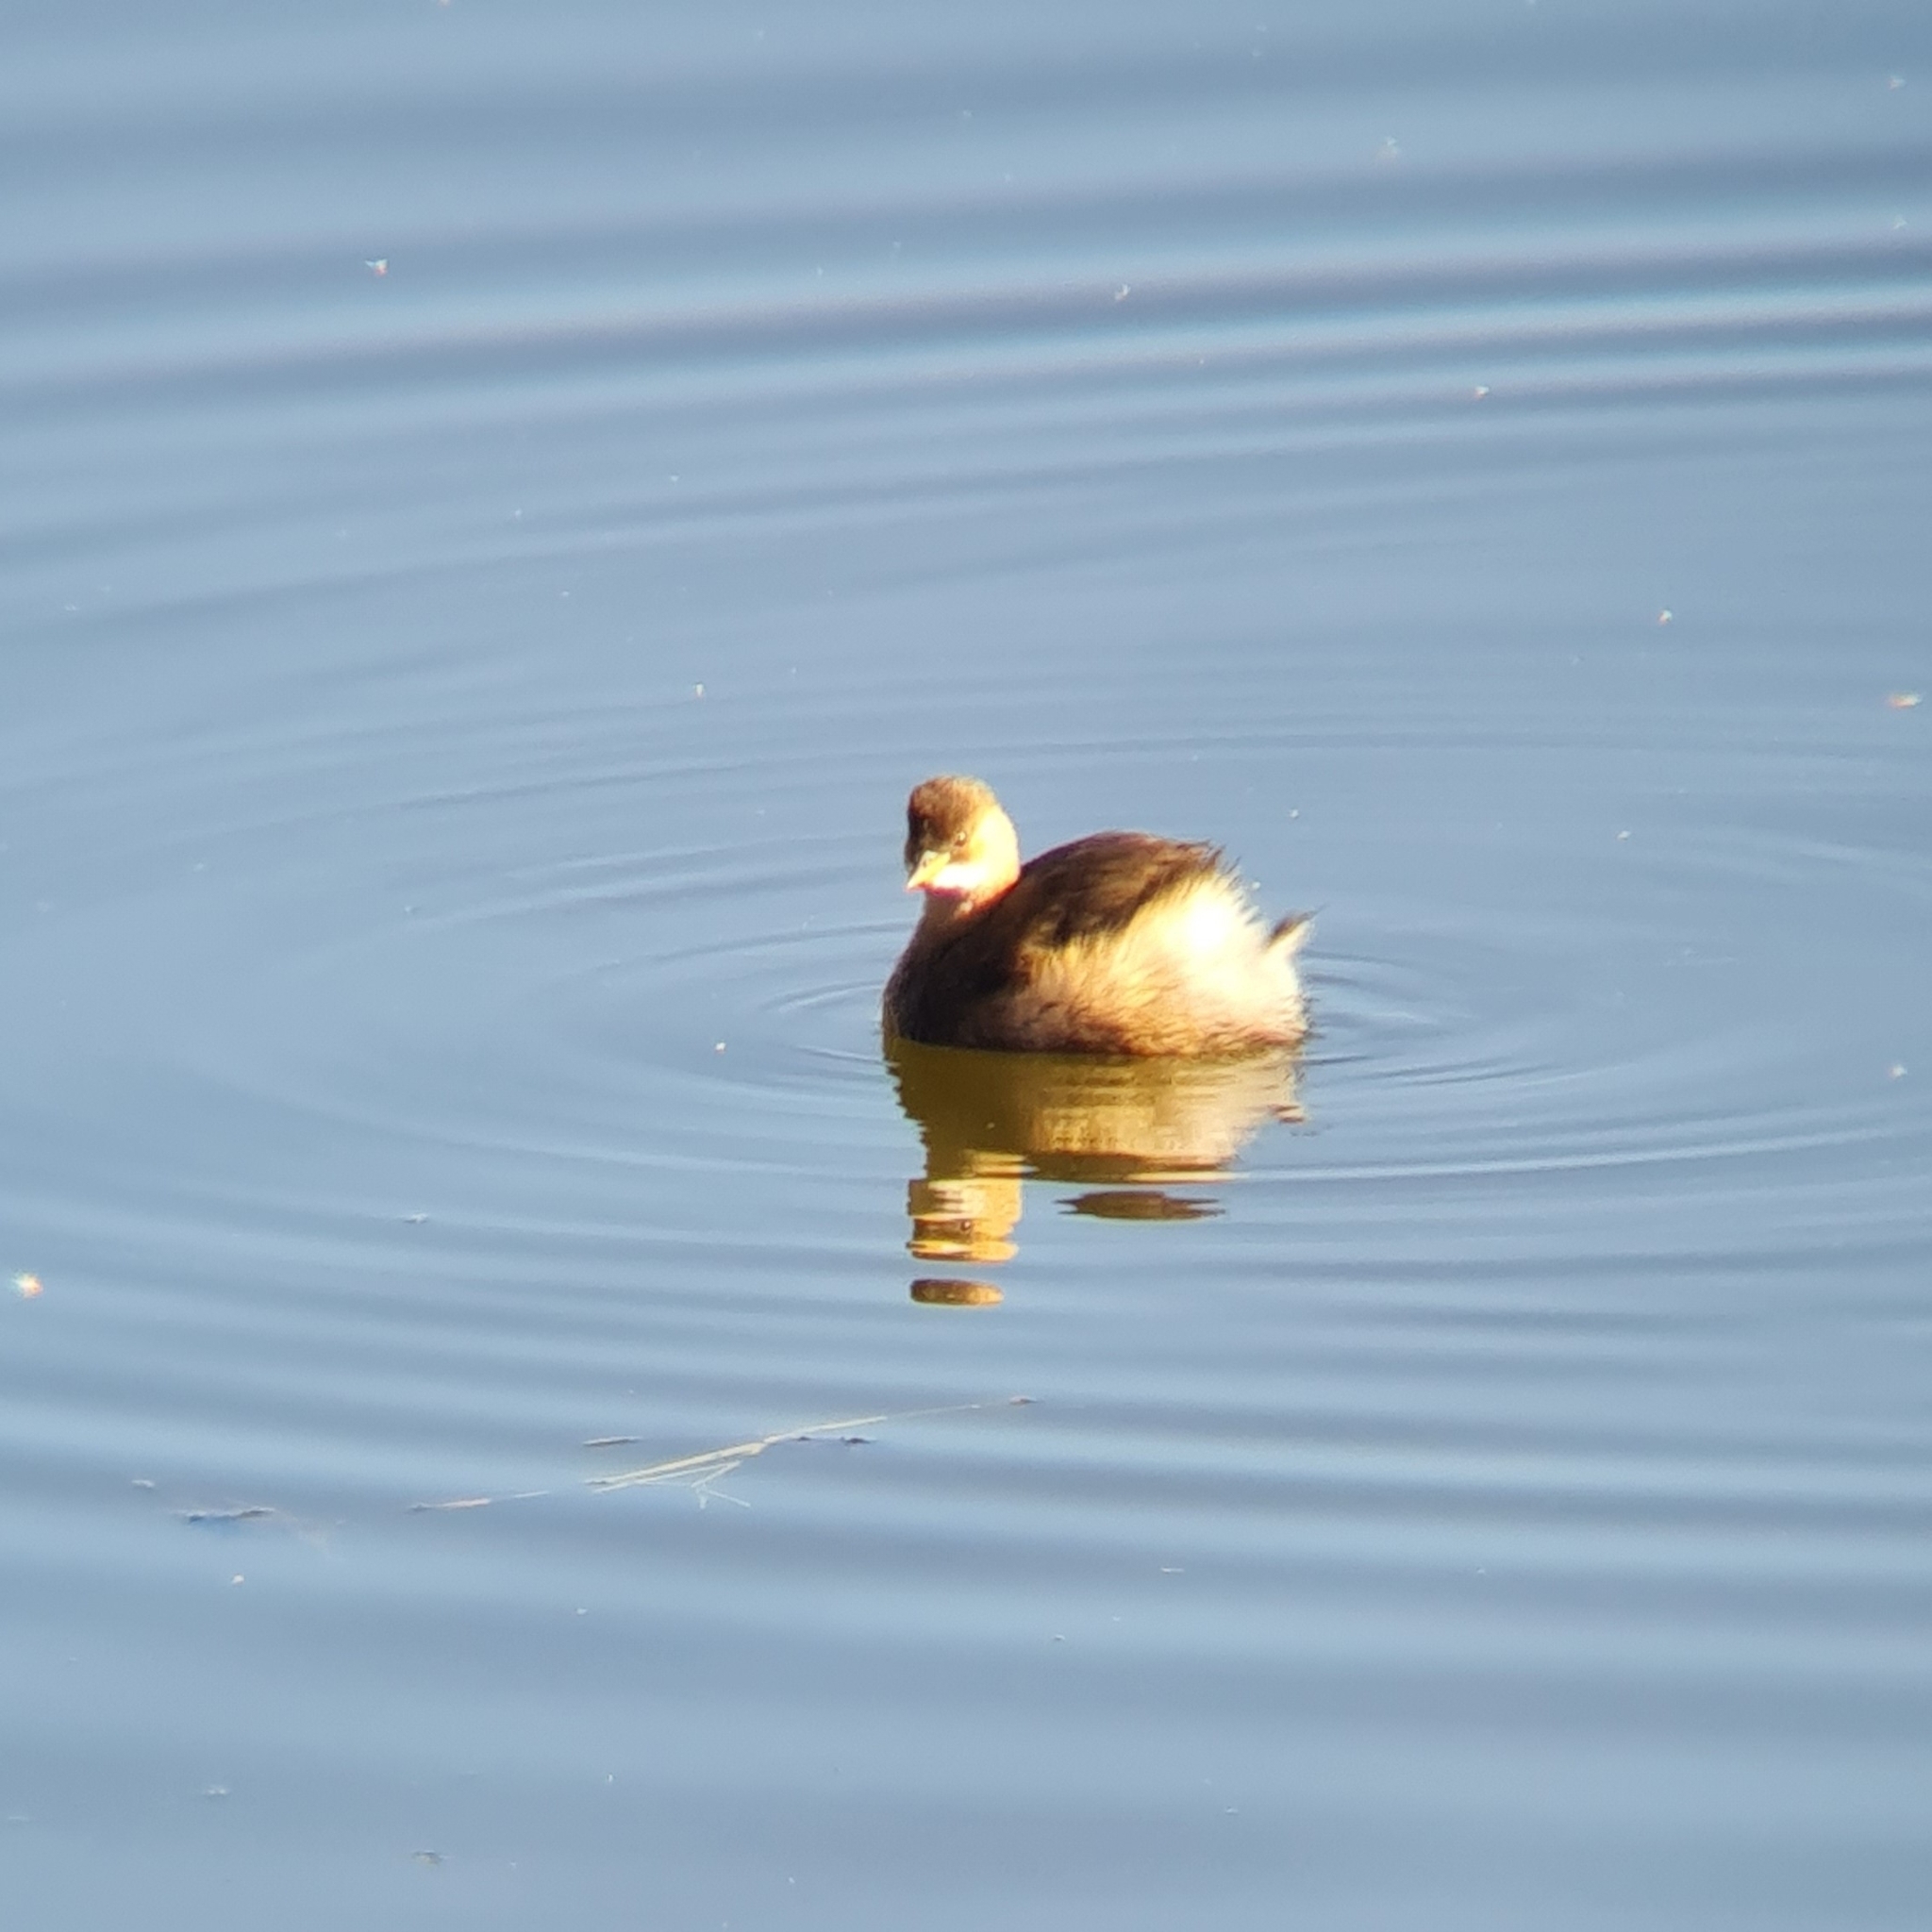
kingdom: Animalia
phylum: Chordata
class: Aves
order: Podicipediformes
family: Podicipedidae
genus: Tachybaptus
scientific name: Tachybaptus ruficollis
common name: Little grebe
